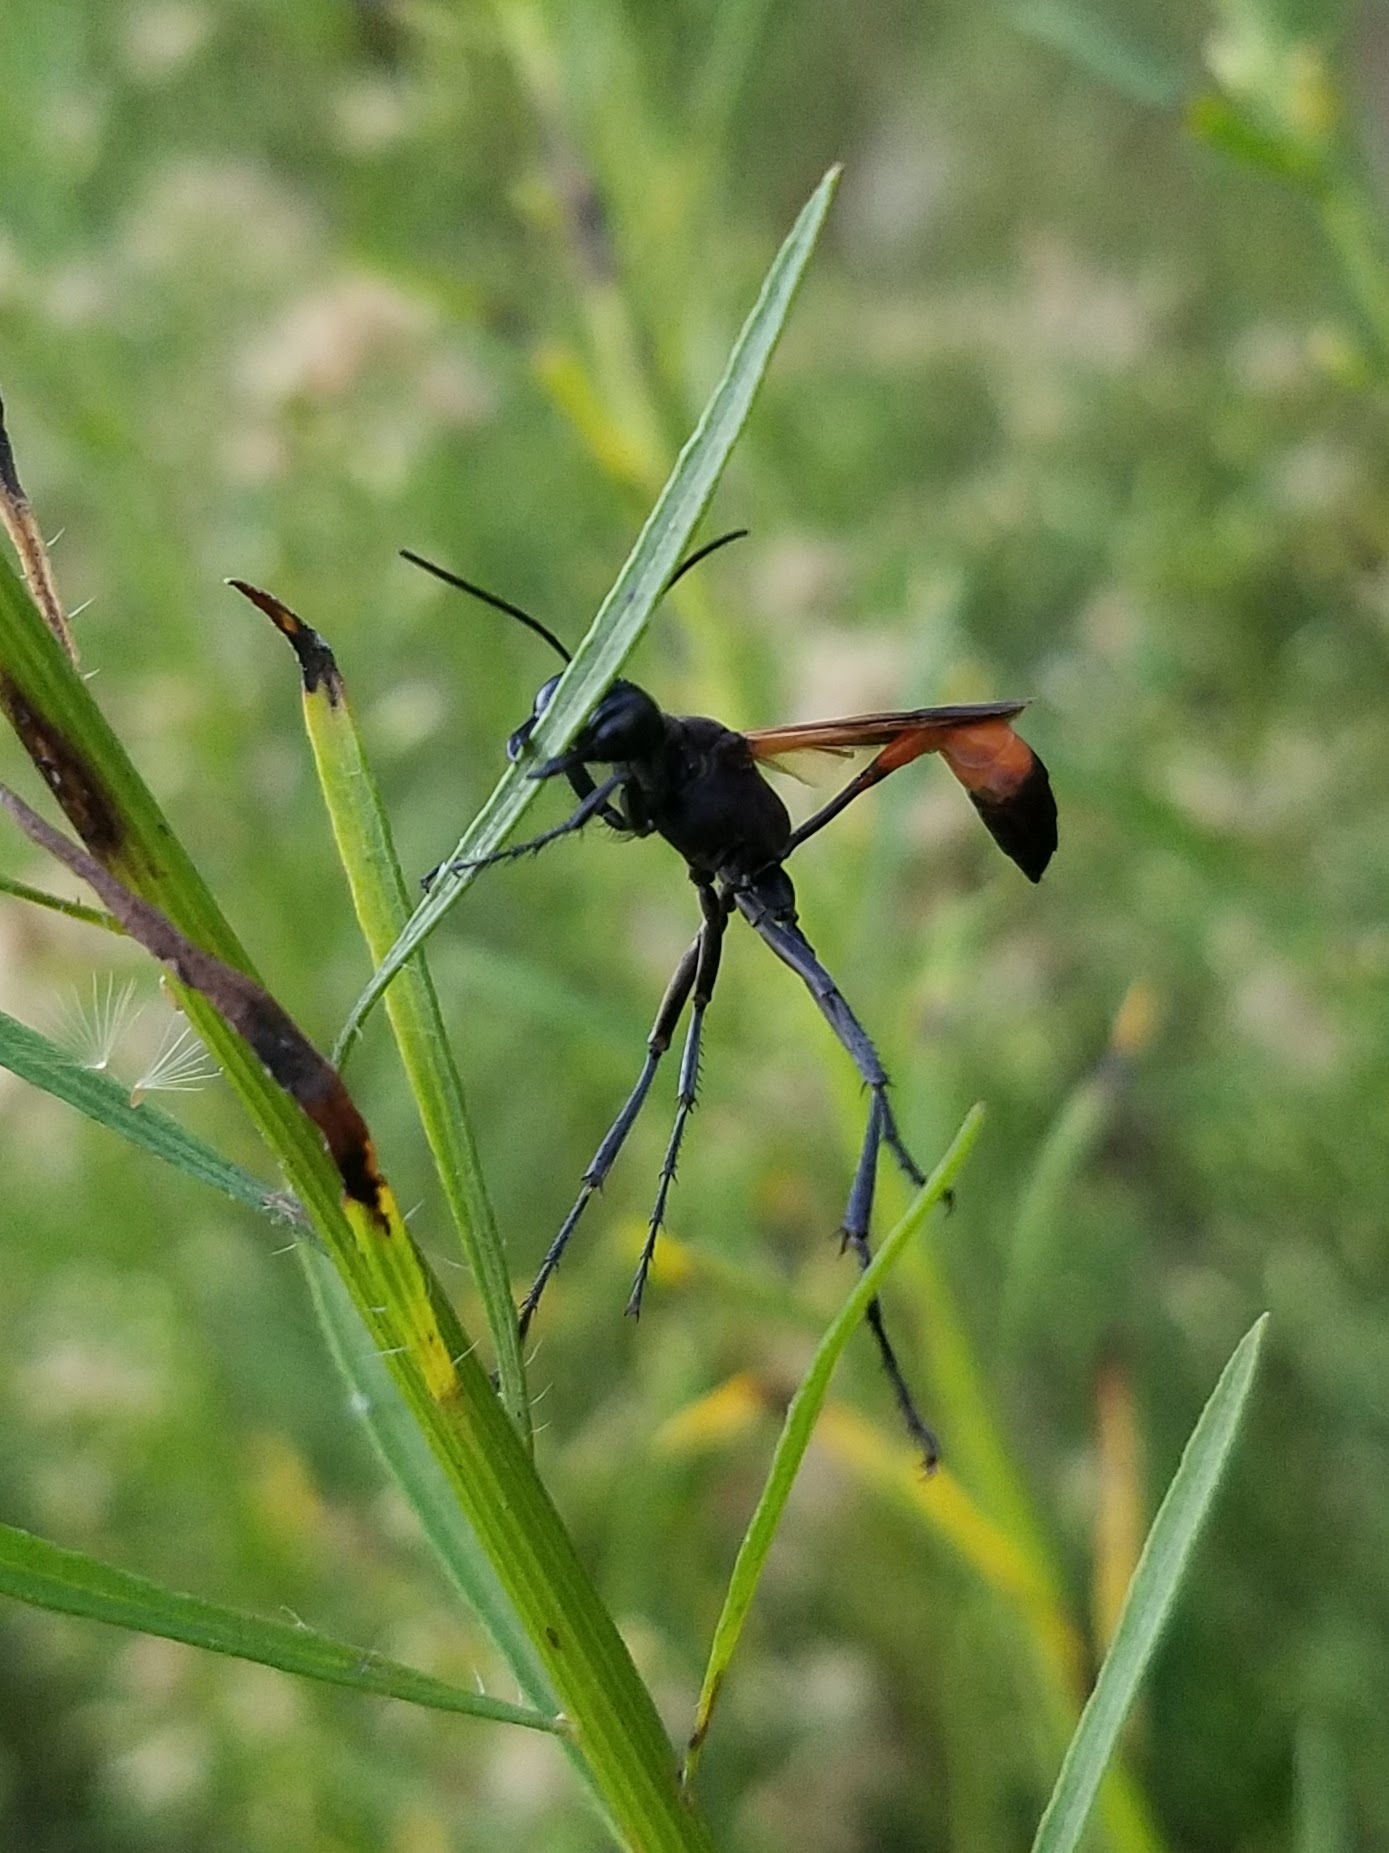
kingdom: Animalia
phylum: Arthropoda
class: Insecta
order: Hymenoptera
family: Sphecidae
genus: Ammophila
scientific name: Ammophila pictipennis
